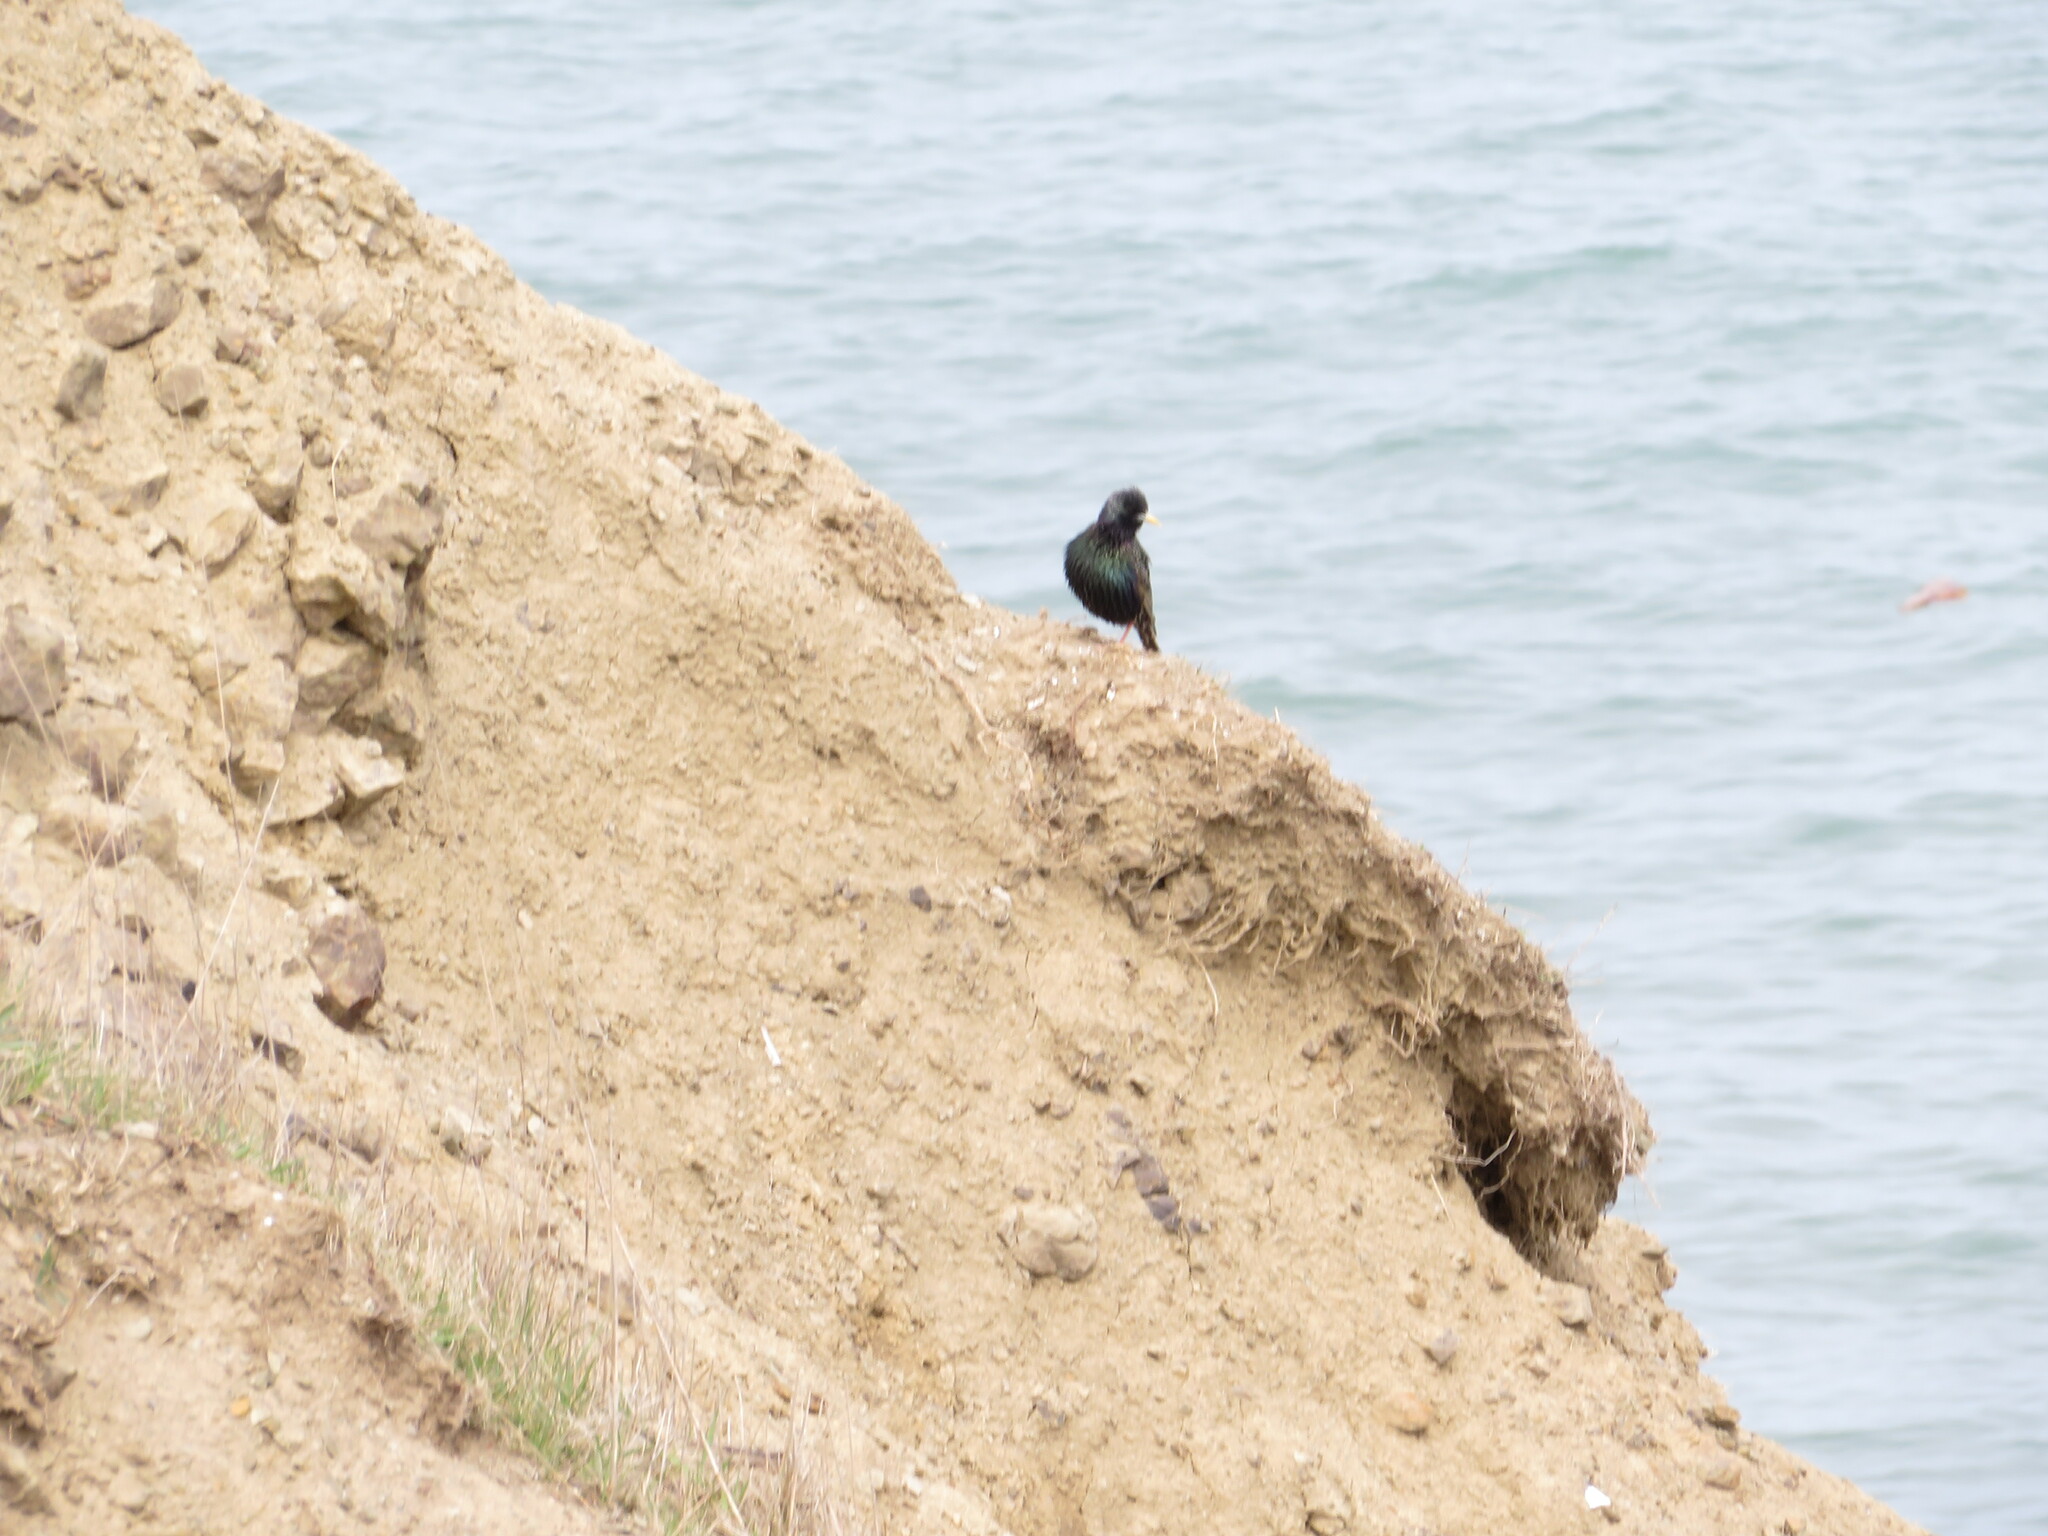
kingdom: Animalia
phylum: Chordata
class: Aves
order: Passeriformes
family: Sturnidae
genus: Sturnus
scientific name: Sturnus vulgaris
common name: Common starling
